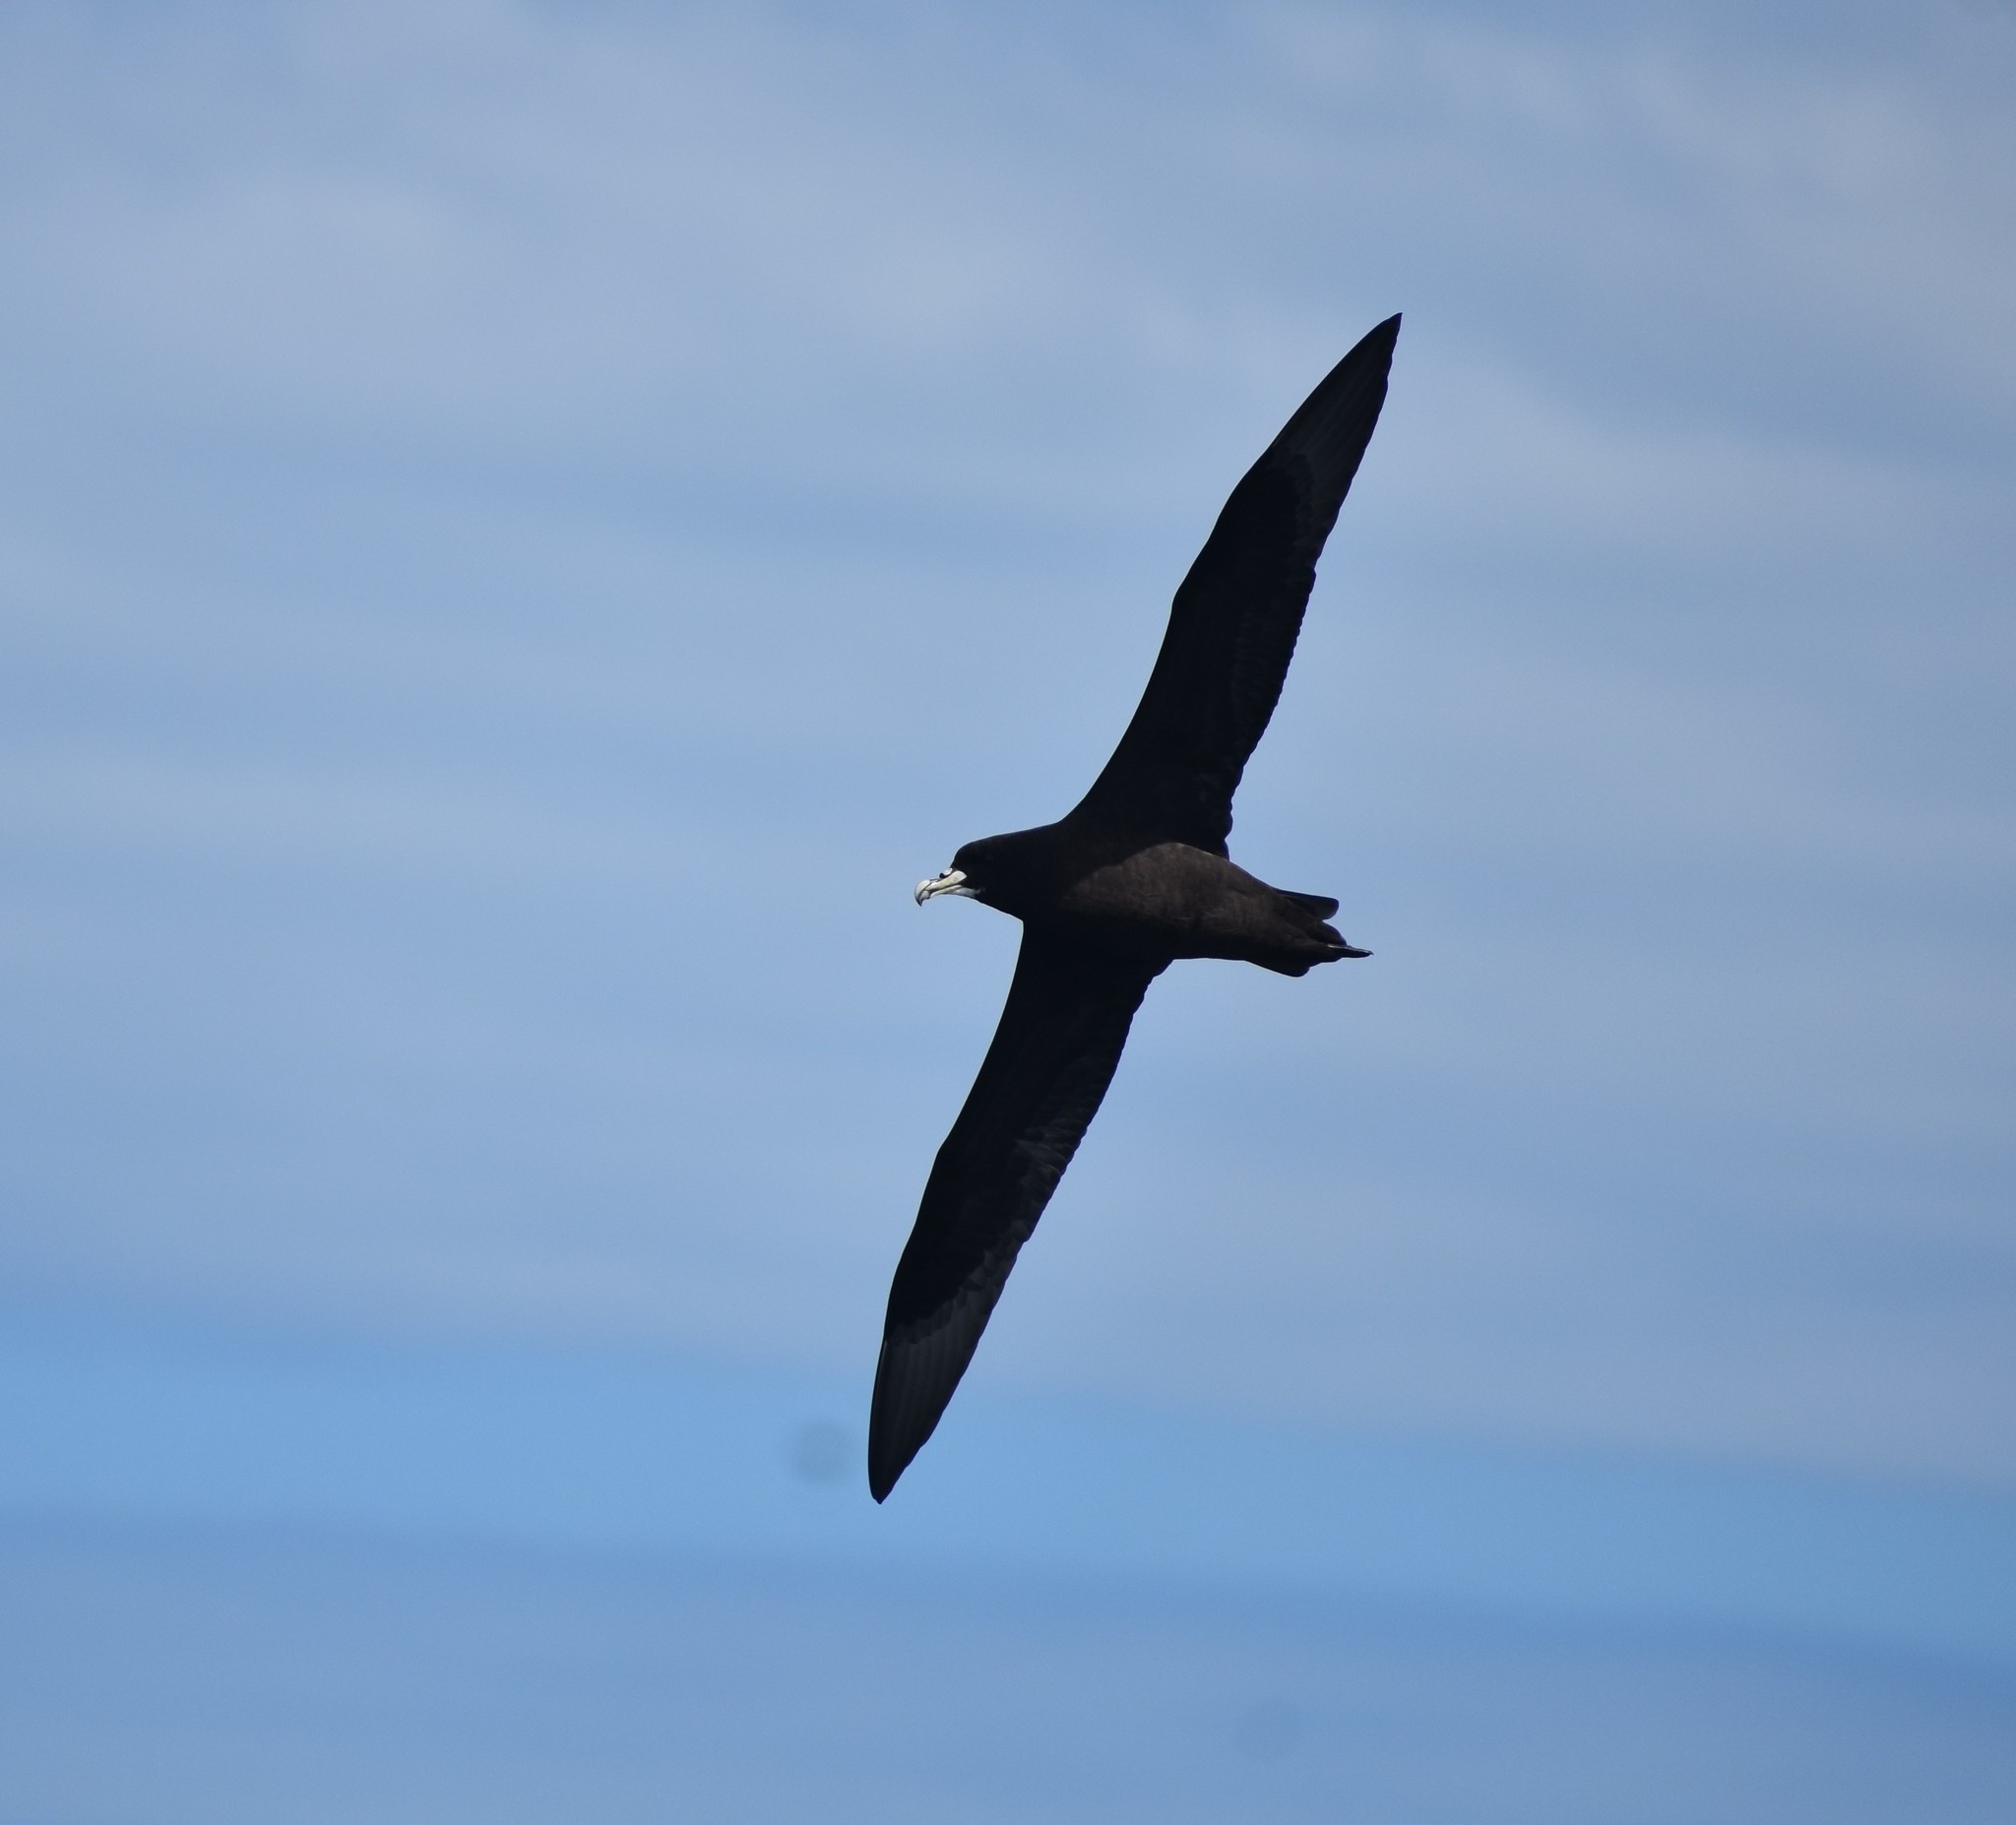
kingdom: Animalia
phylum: Chordata
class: Aves
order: Procellariiformes
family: Procellariidae
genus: Procellaria
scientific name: Procellaria aequinoctialis
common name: White-chinned petrel
